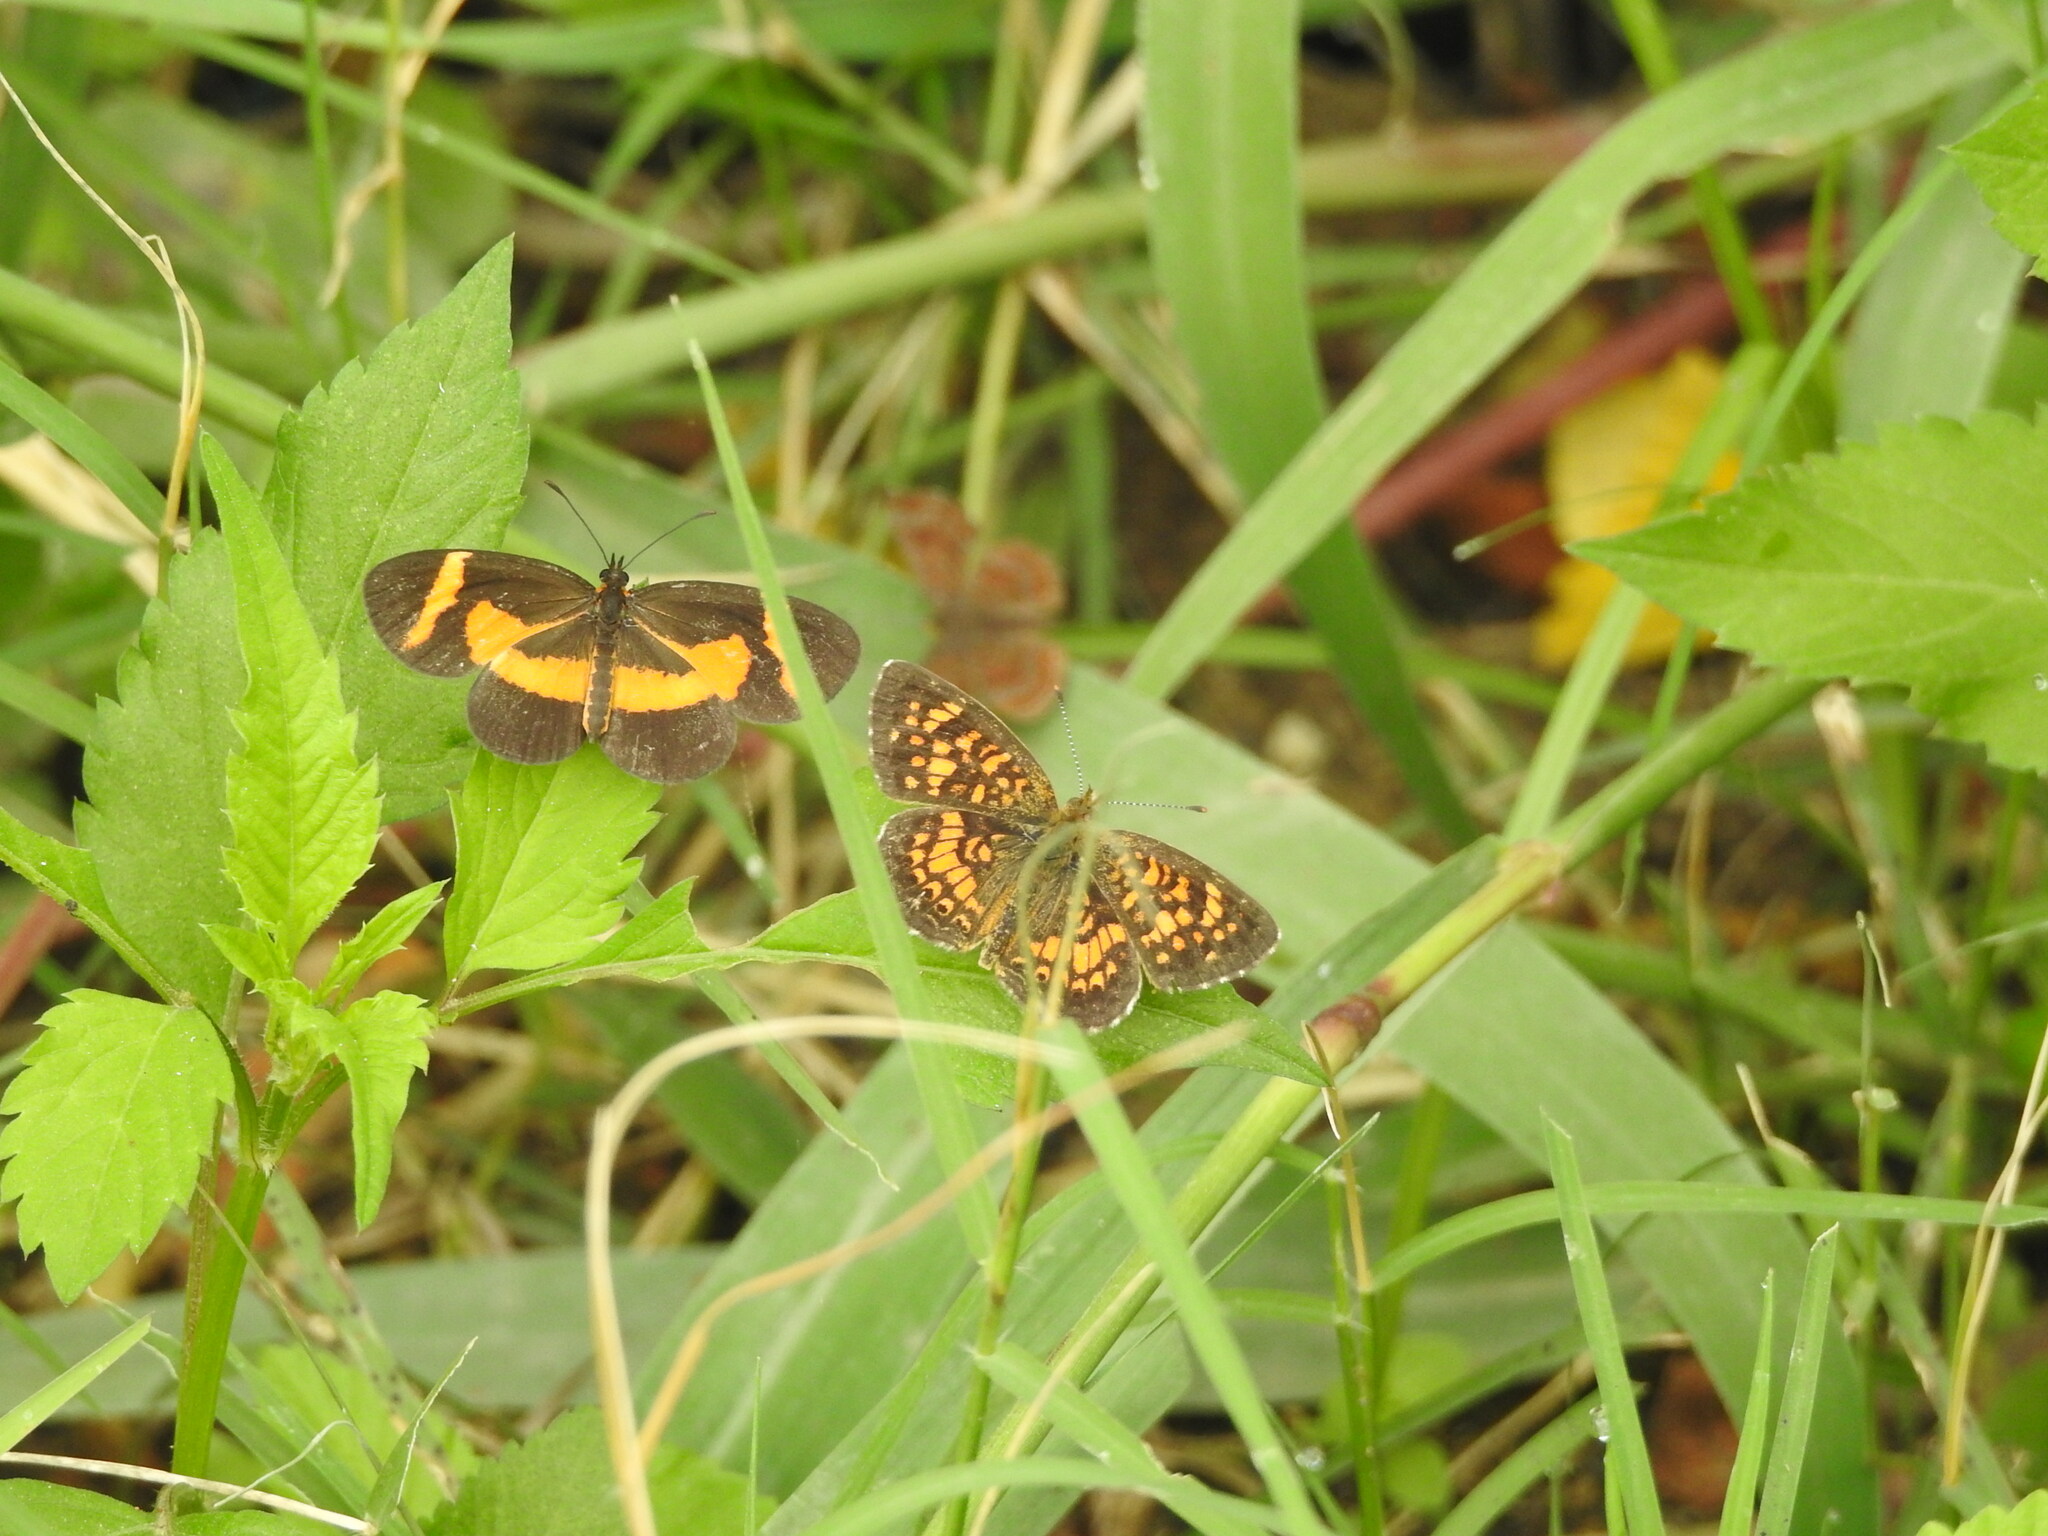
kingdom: Animalia
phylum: Arthropoda
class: Insecta
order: Lepidoptera
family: Nymphalidae
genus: Microtia
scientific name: Microtia elva
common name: Elf
